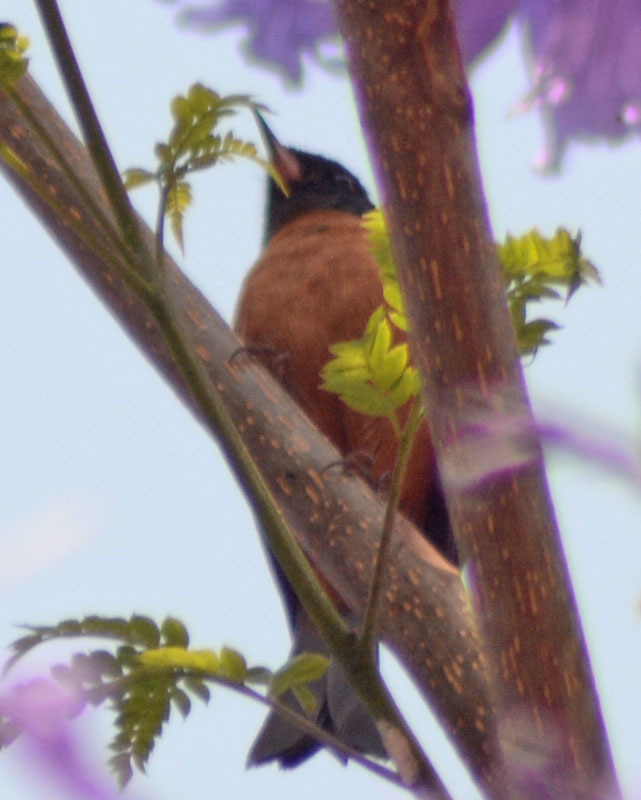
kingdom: Animalia
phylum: Chordata
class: Aves
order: Passeriformes
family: Thraupidae
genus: Diglossa
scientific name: Diglossa baritula
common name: Cinnamon-bellied flowerpiercer
